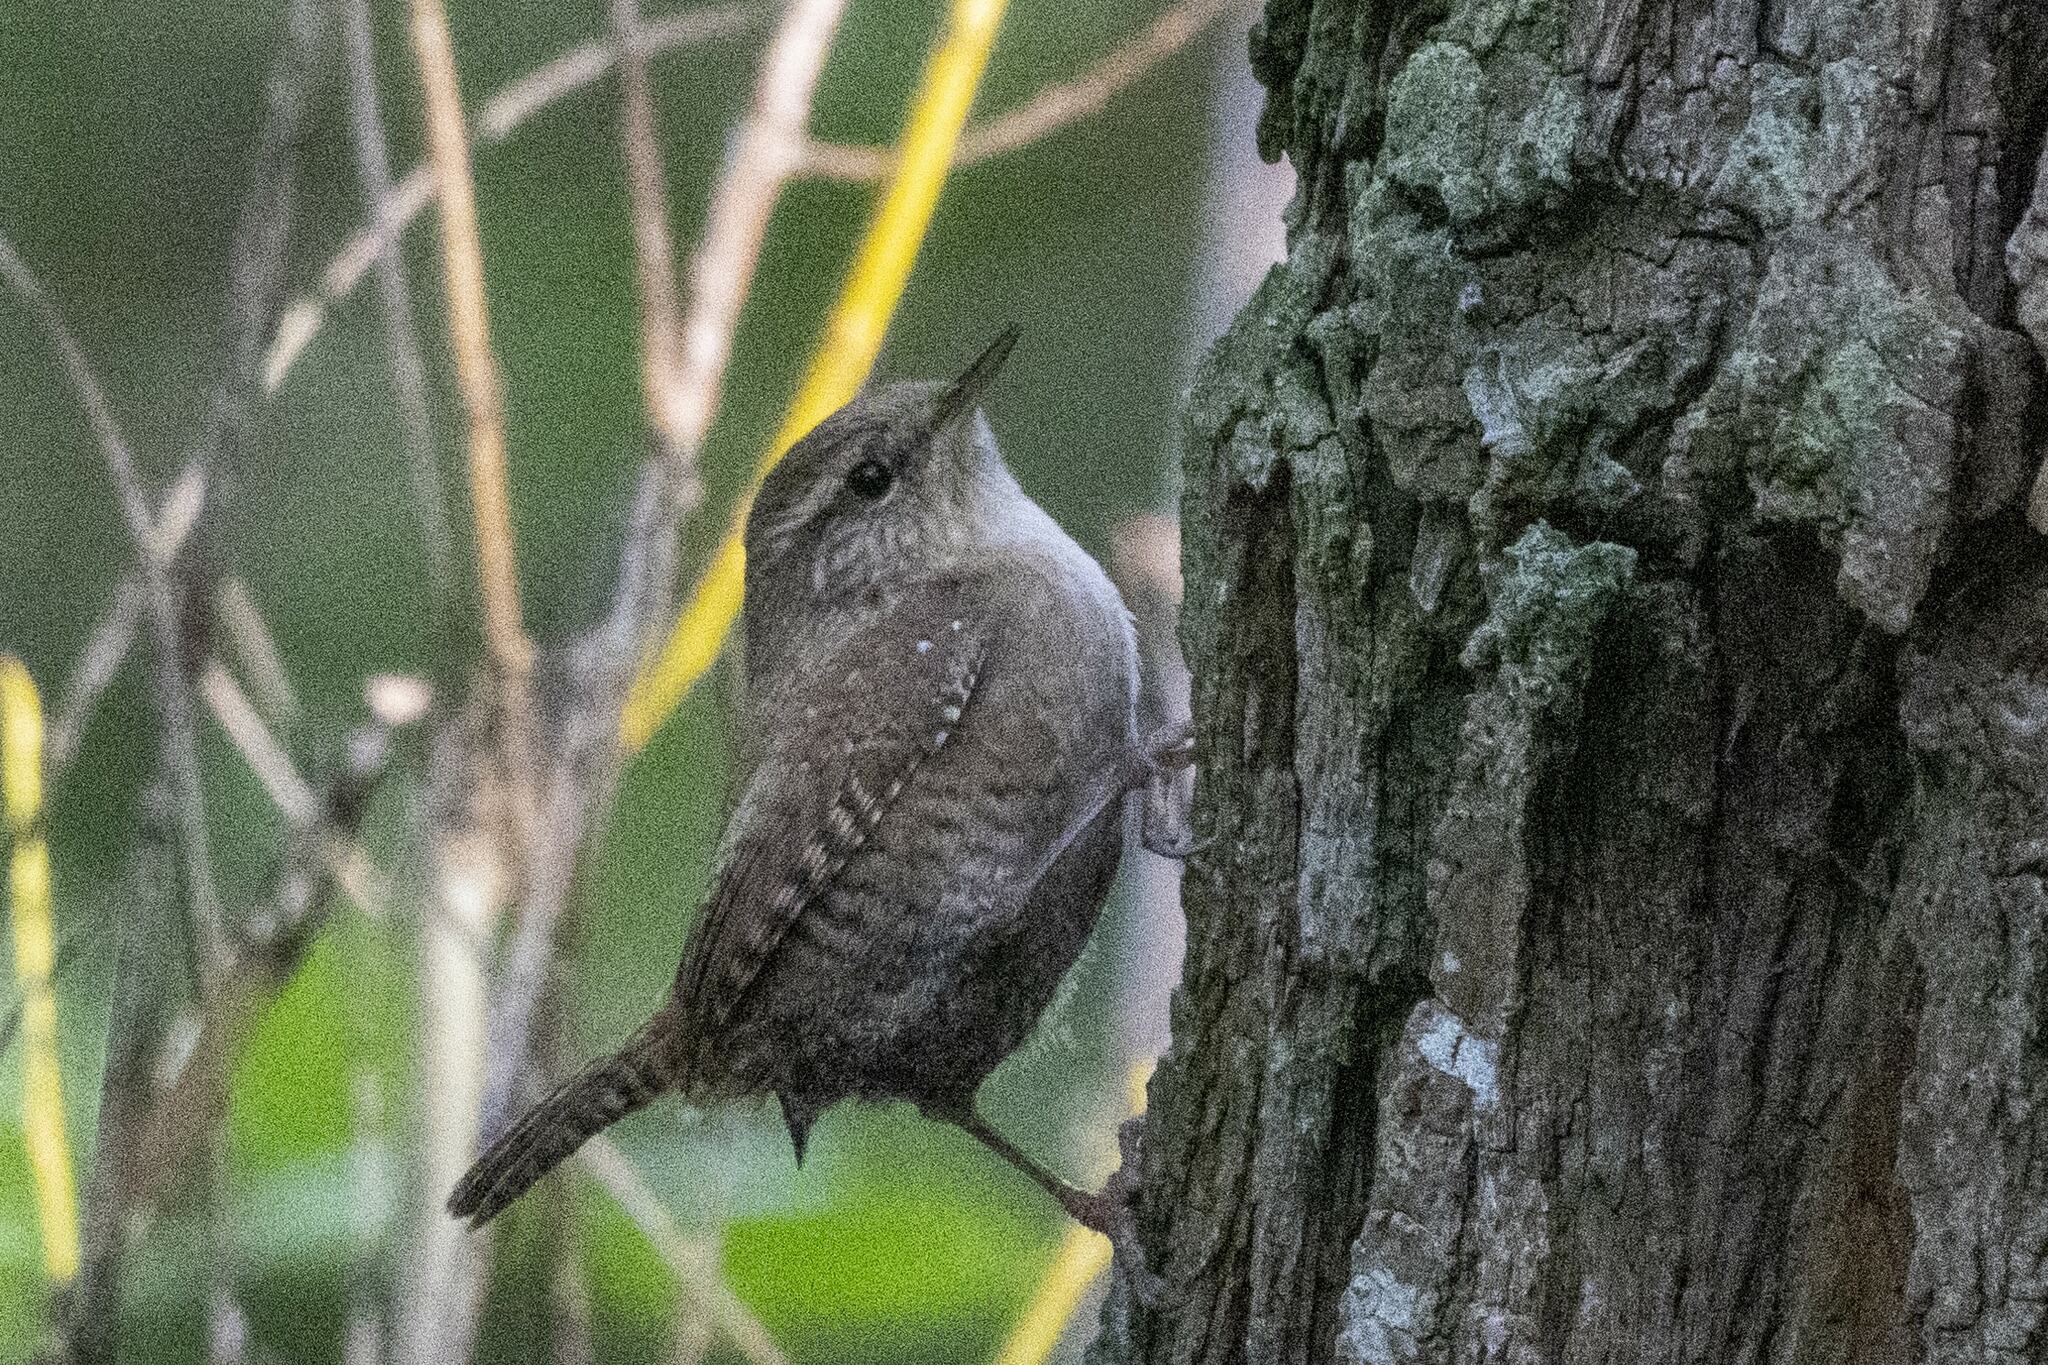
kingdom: Animalia
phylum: Chordata
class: Aves
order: Passeriformes
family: Troglodytidae
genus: Troglodytes
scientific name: Troglodytes troglodytes
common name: Eurasian wren
